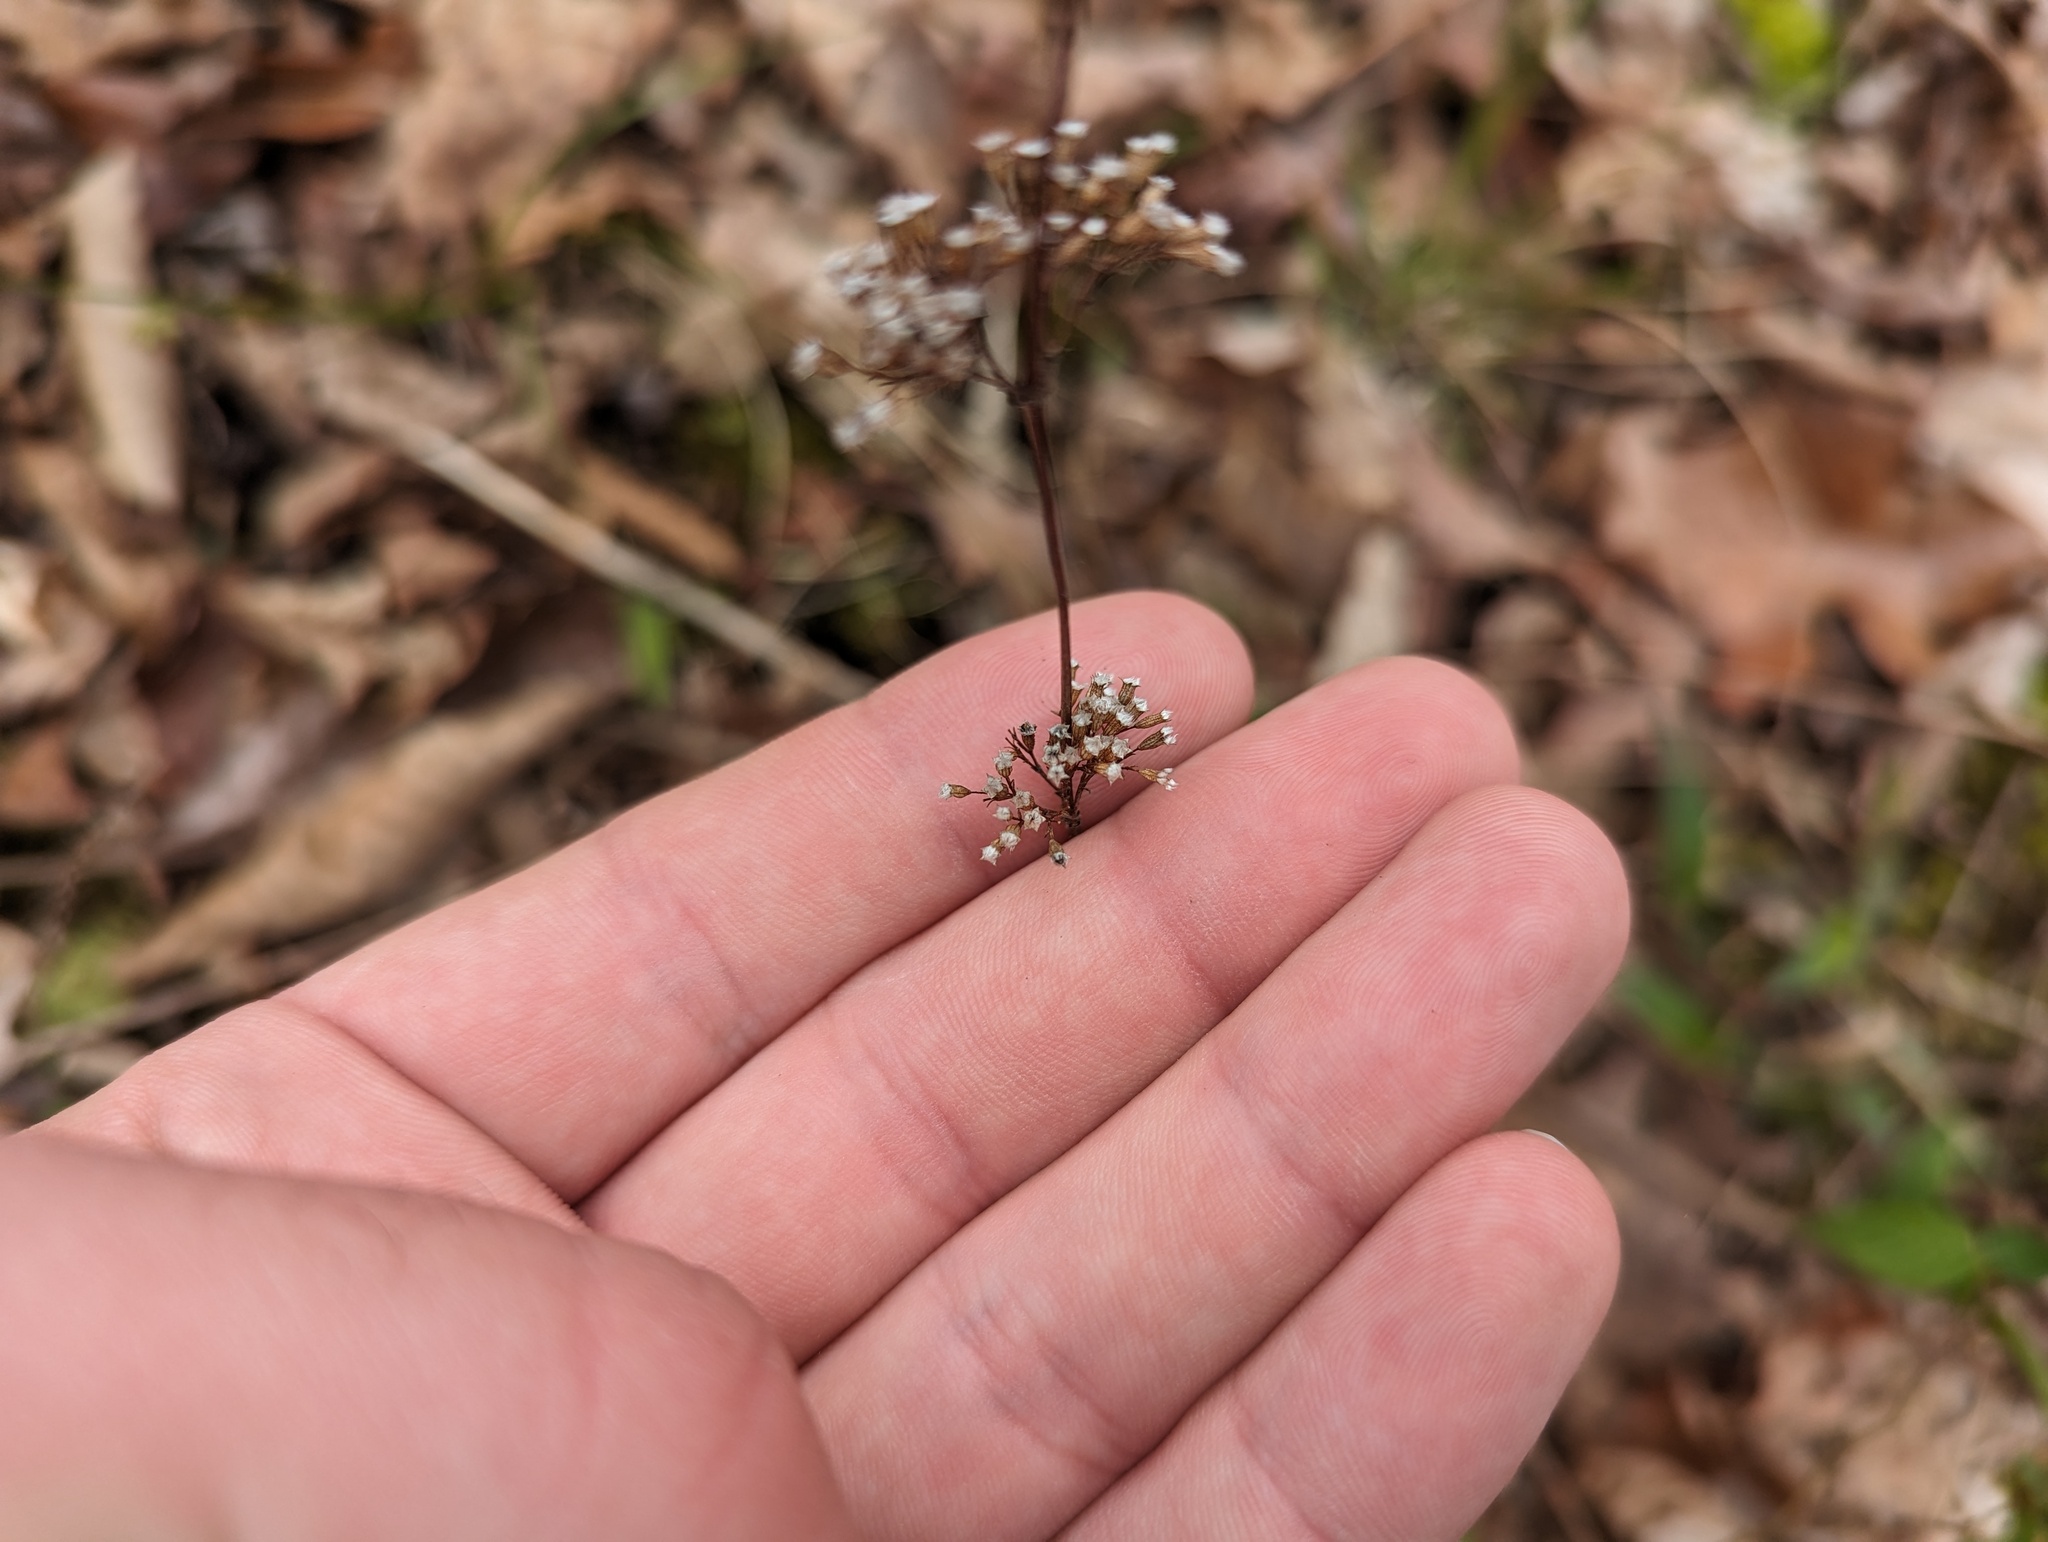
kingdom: Plantae
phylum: Tracheophyta
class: Magnoliopsida
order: Lamiales
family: Lamiaceae
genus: Cunila
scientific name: Cunila origanoides
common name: American dittany
